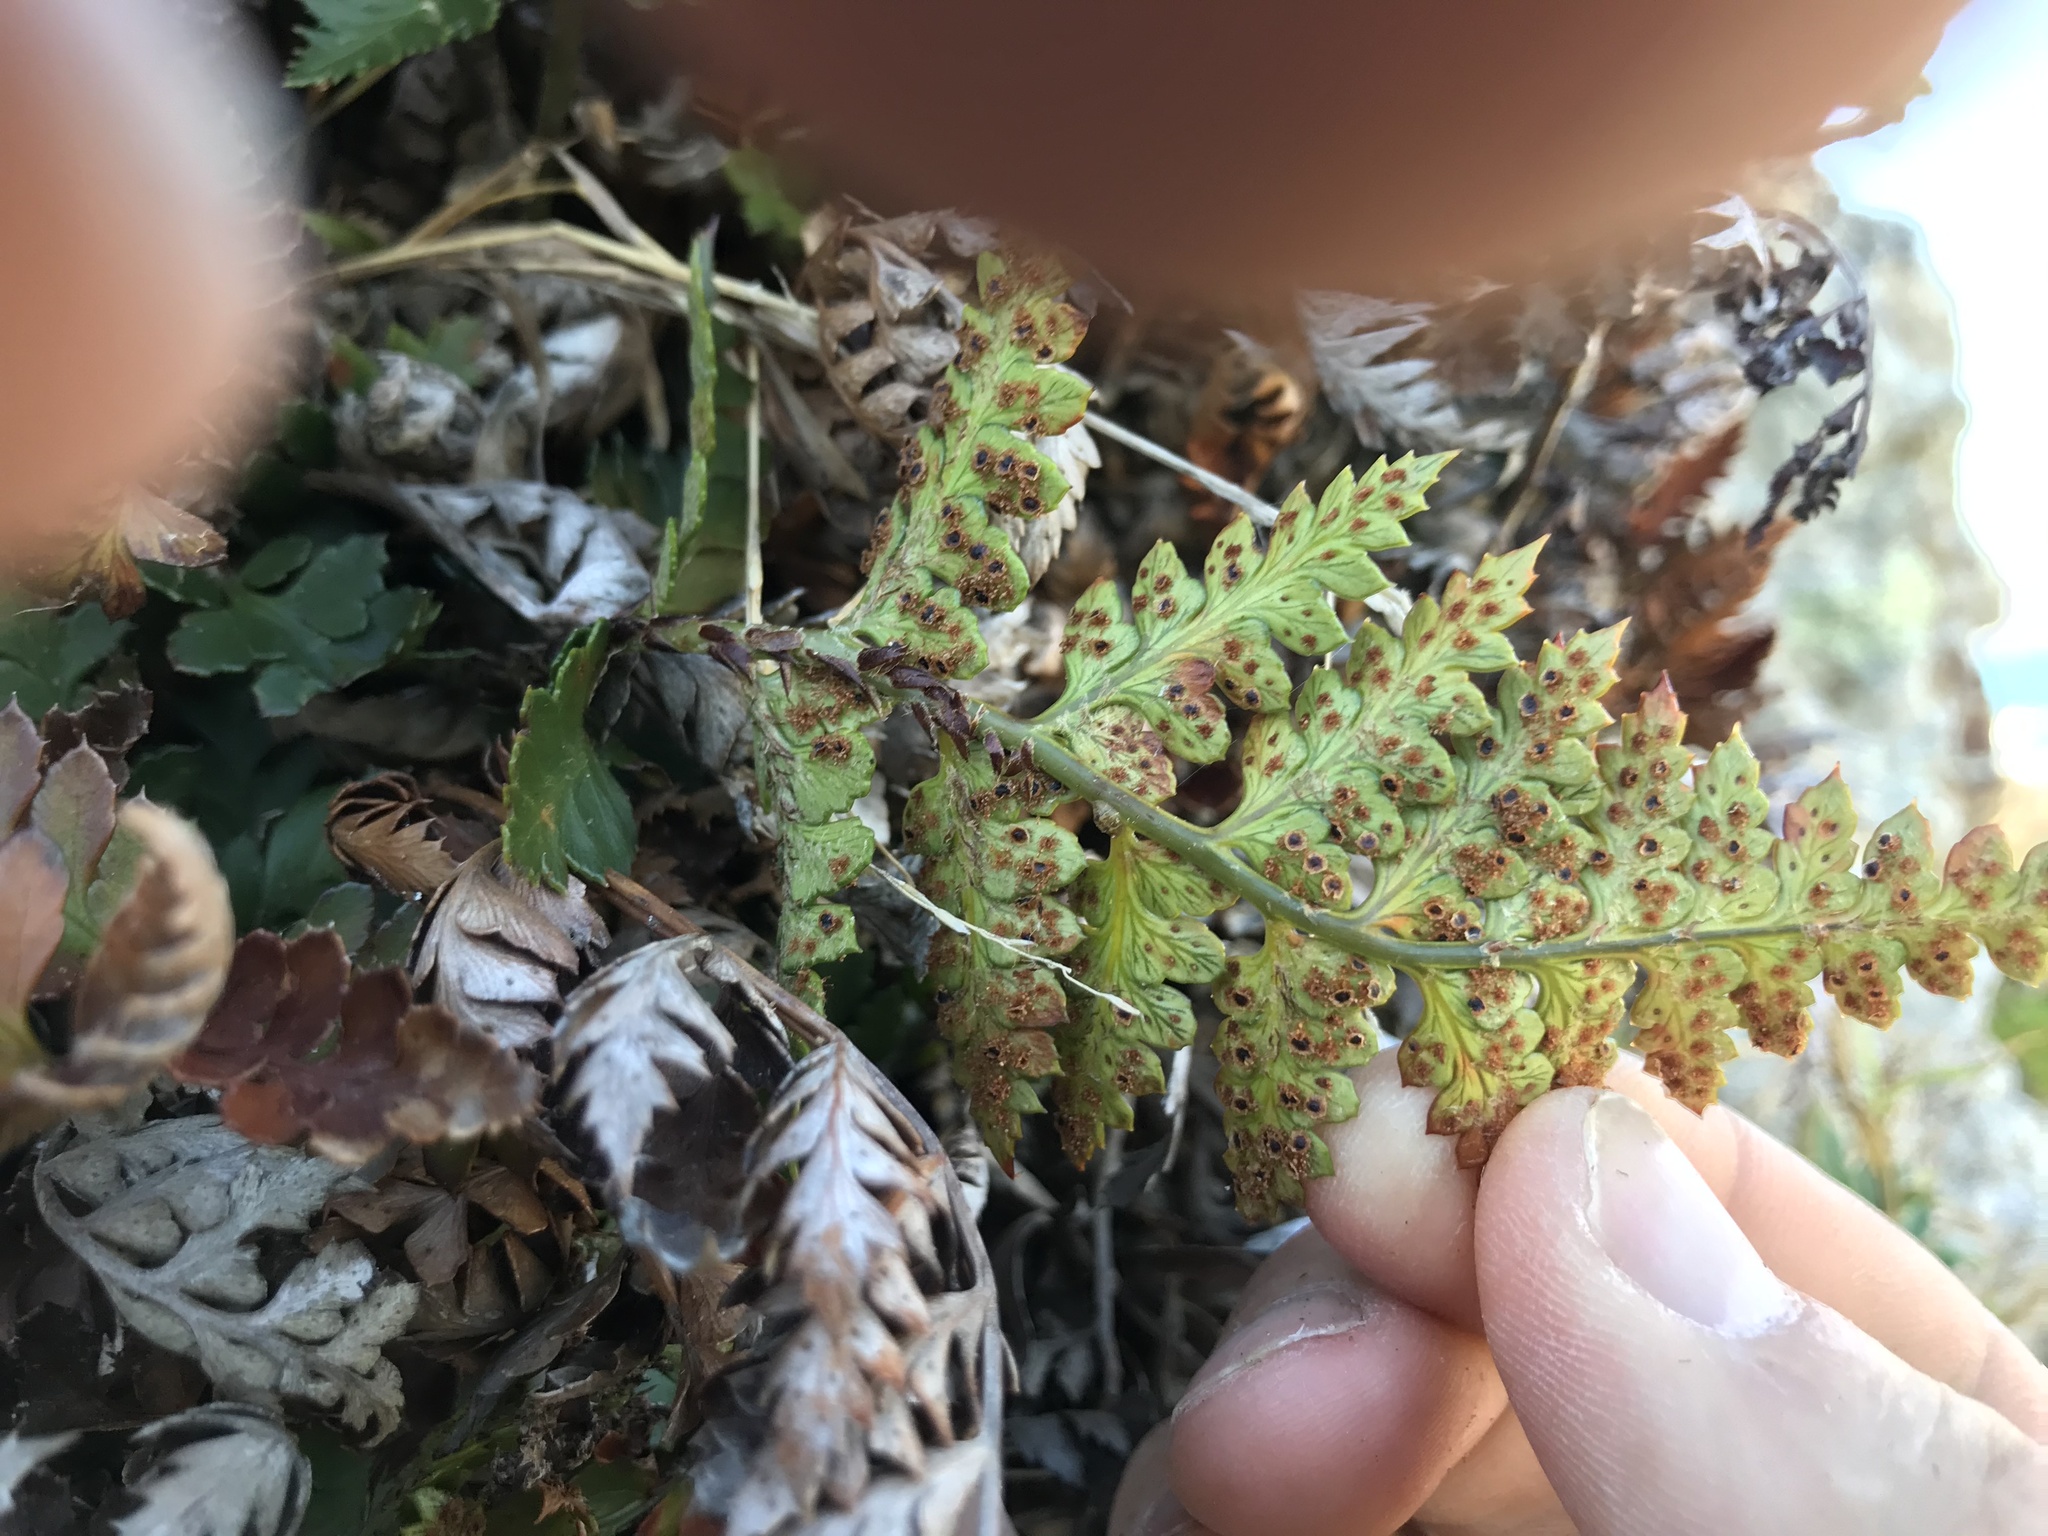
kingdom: Plantae
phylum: Tracheophyta
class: Polypodiopsida
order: Polypodiales
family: Dryopteridaceae
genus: Polystichum
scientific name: Polystichum oculatum
